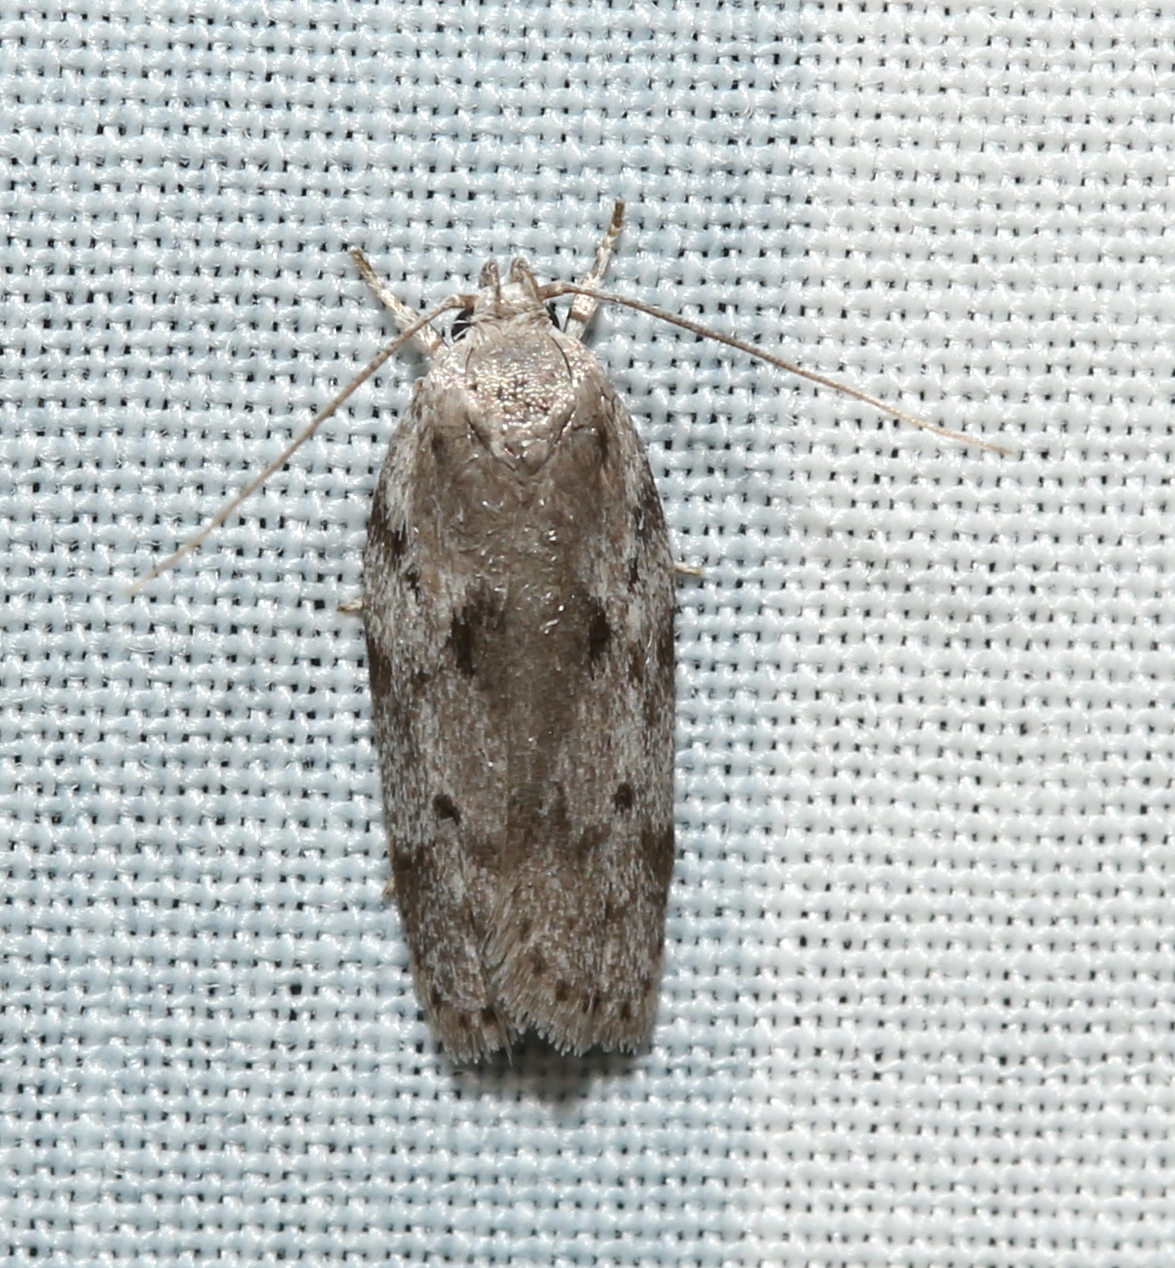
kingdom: Animalia
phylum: Arthropoda
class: Insecta
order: Lepidoptera
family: Depressariidae
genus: Antaeotricha
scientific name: Antaeotricha humilis
